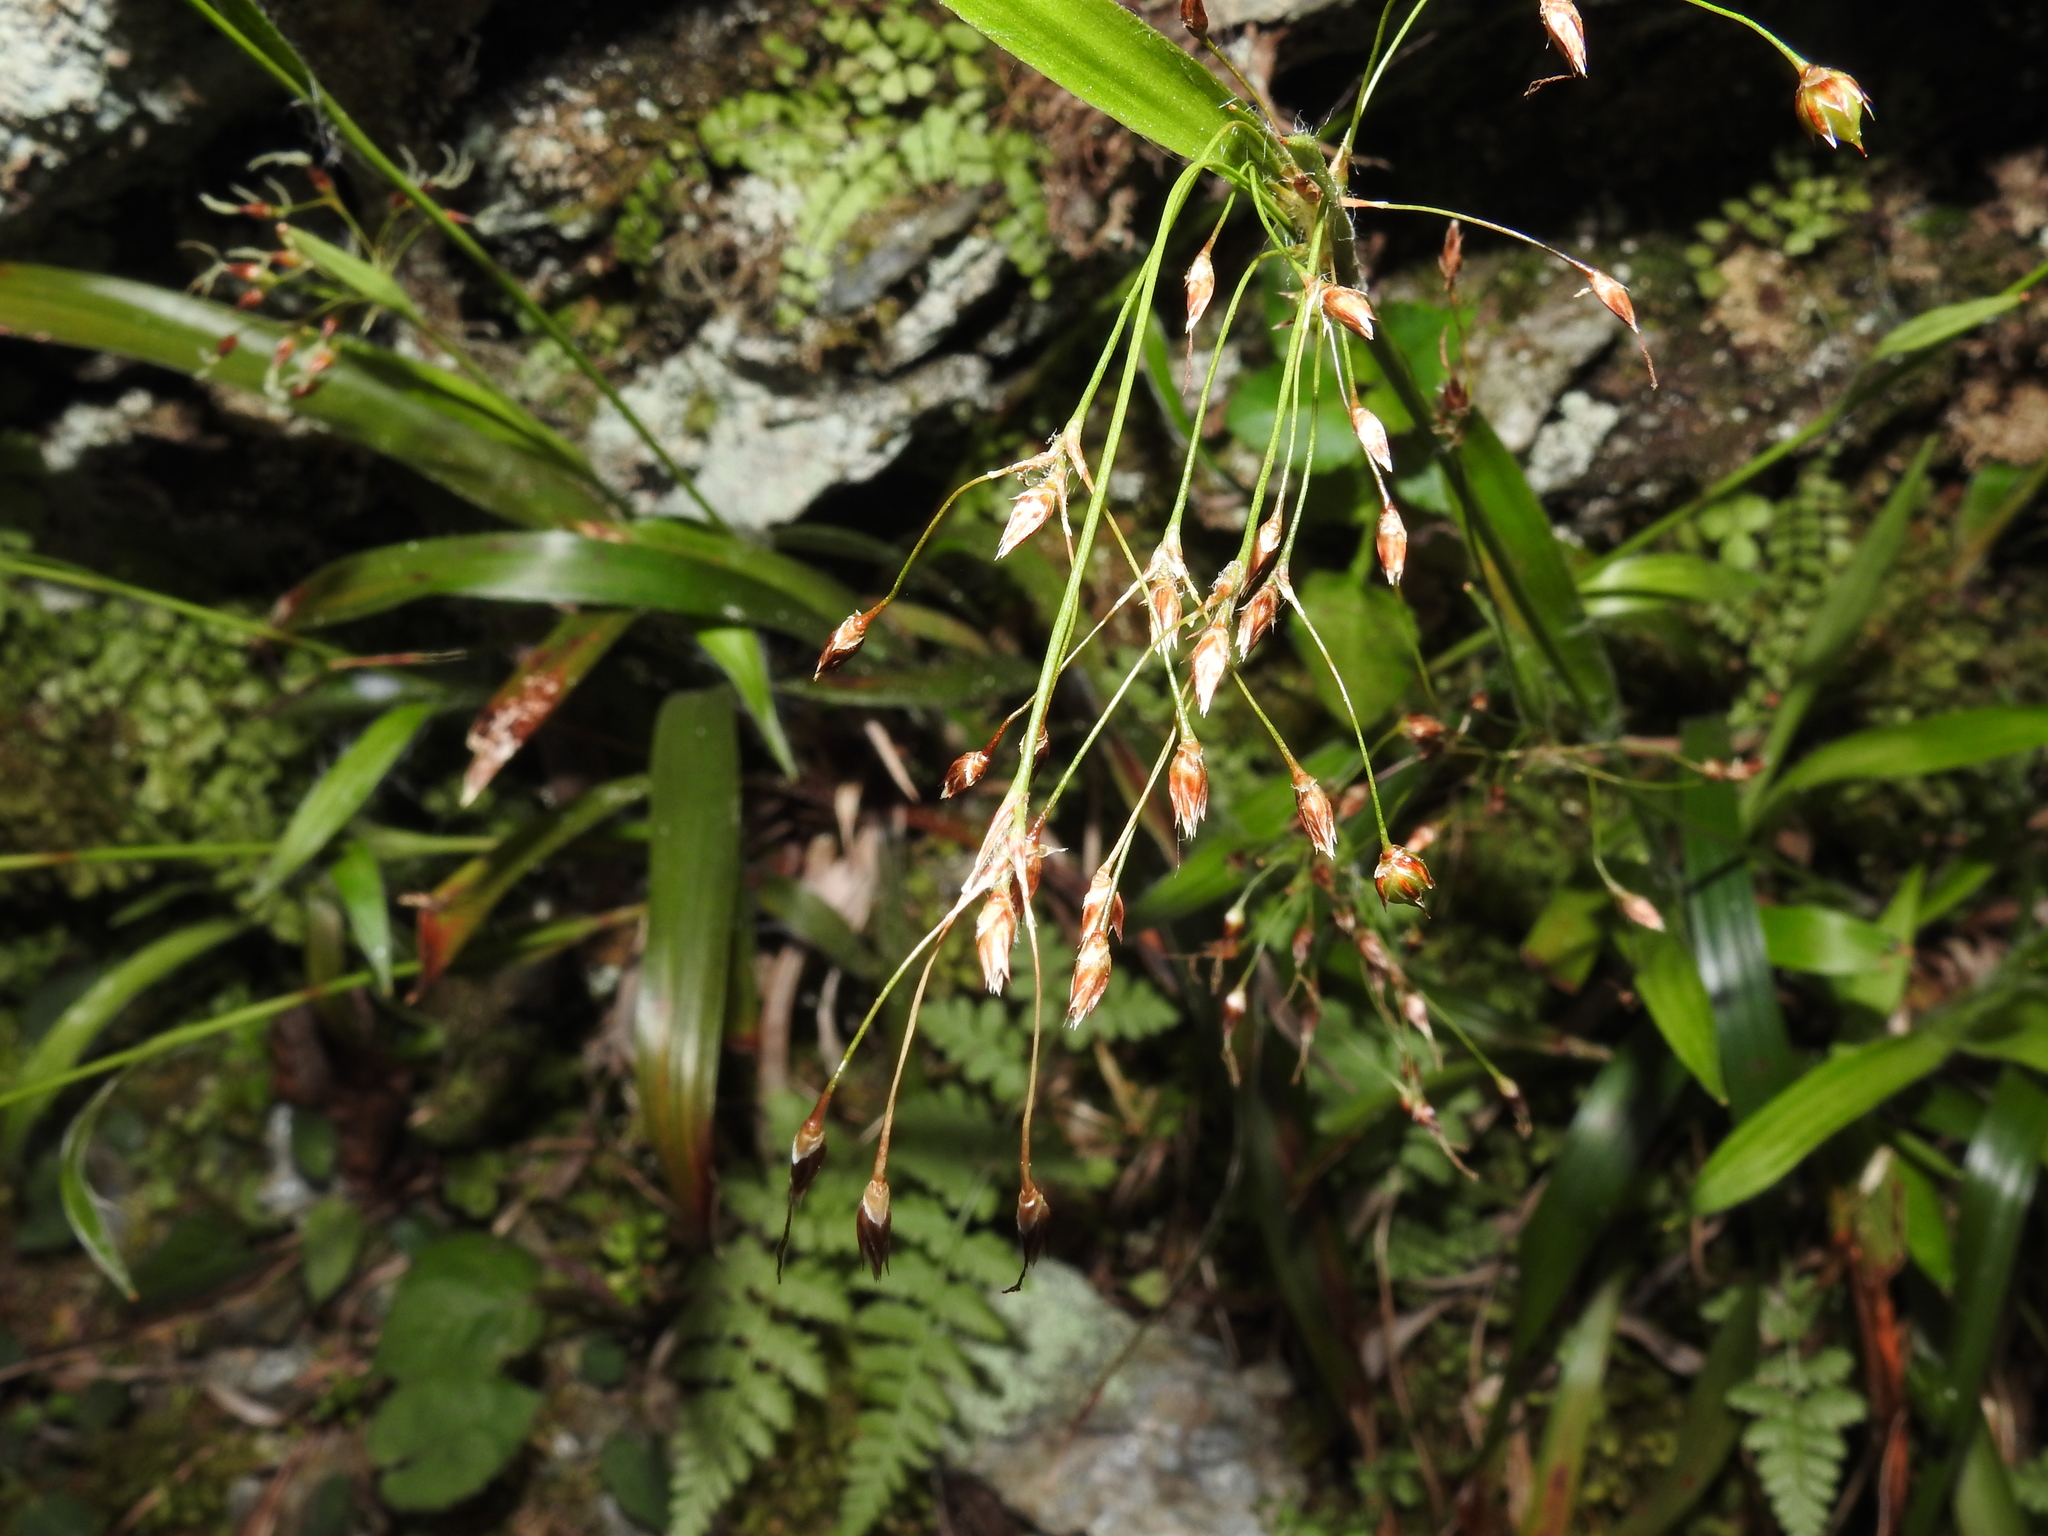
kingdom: Plantae
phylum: Tracheophyta
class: Liliopsida
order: Poales
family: Juncaceae
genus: Luzula
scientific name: Luzula acuminata
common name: Hairy woodrush
